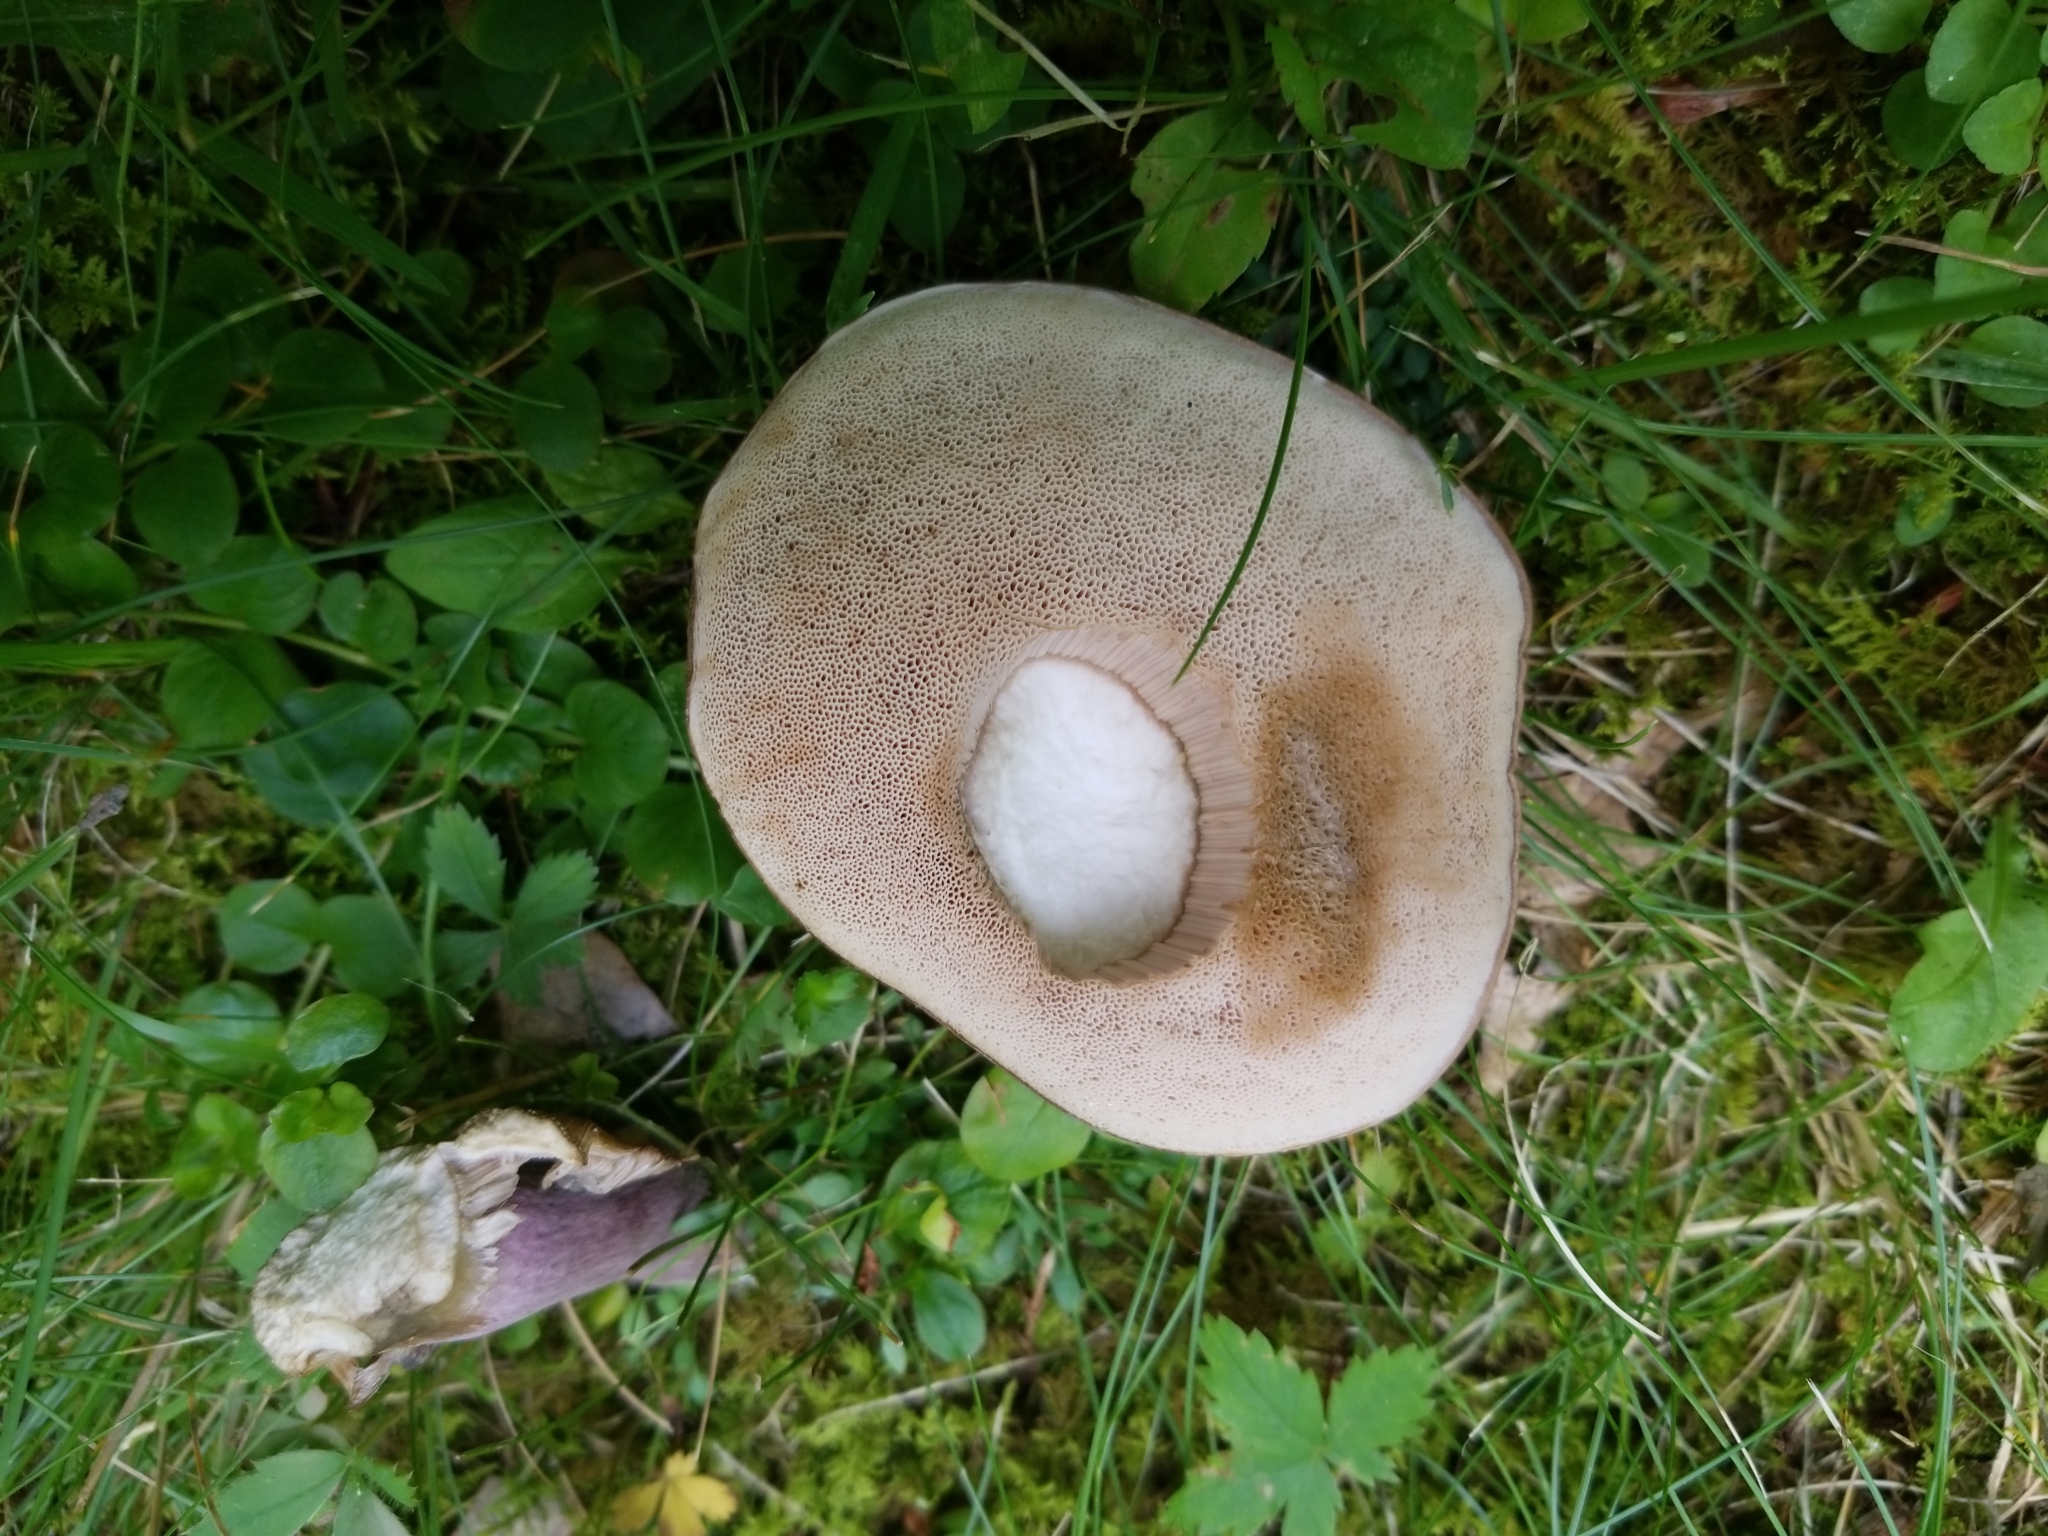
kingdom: Fungi
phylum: Basidiomycota
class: Agaricomycetes
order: Boletales
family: Boletaceae
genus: Tylopilus
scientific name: Tylopilus plumbeoviolaceus
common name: Violet gray bolete
